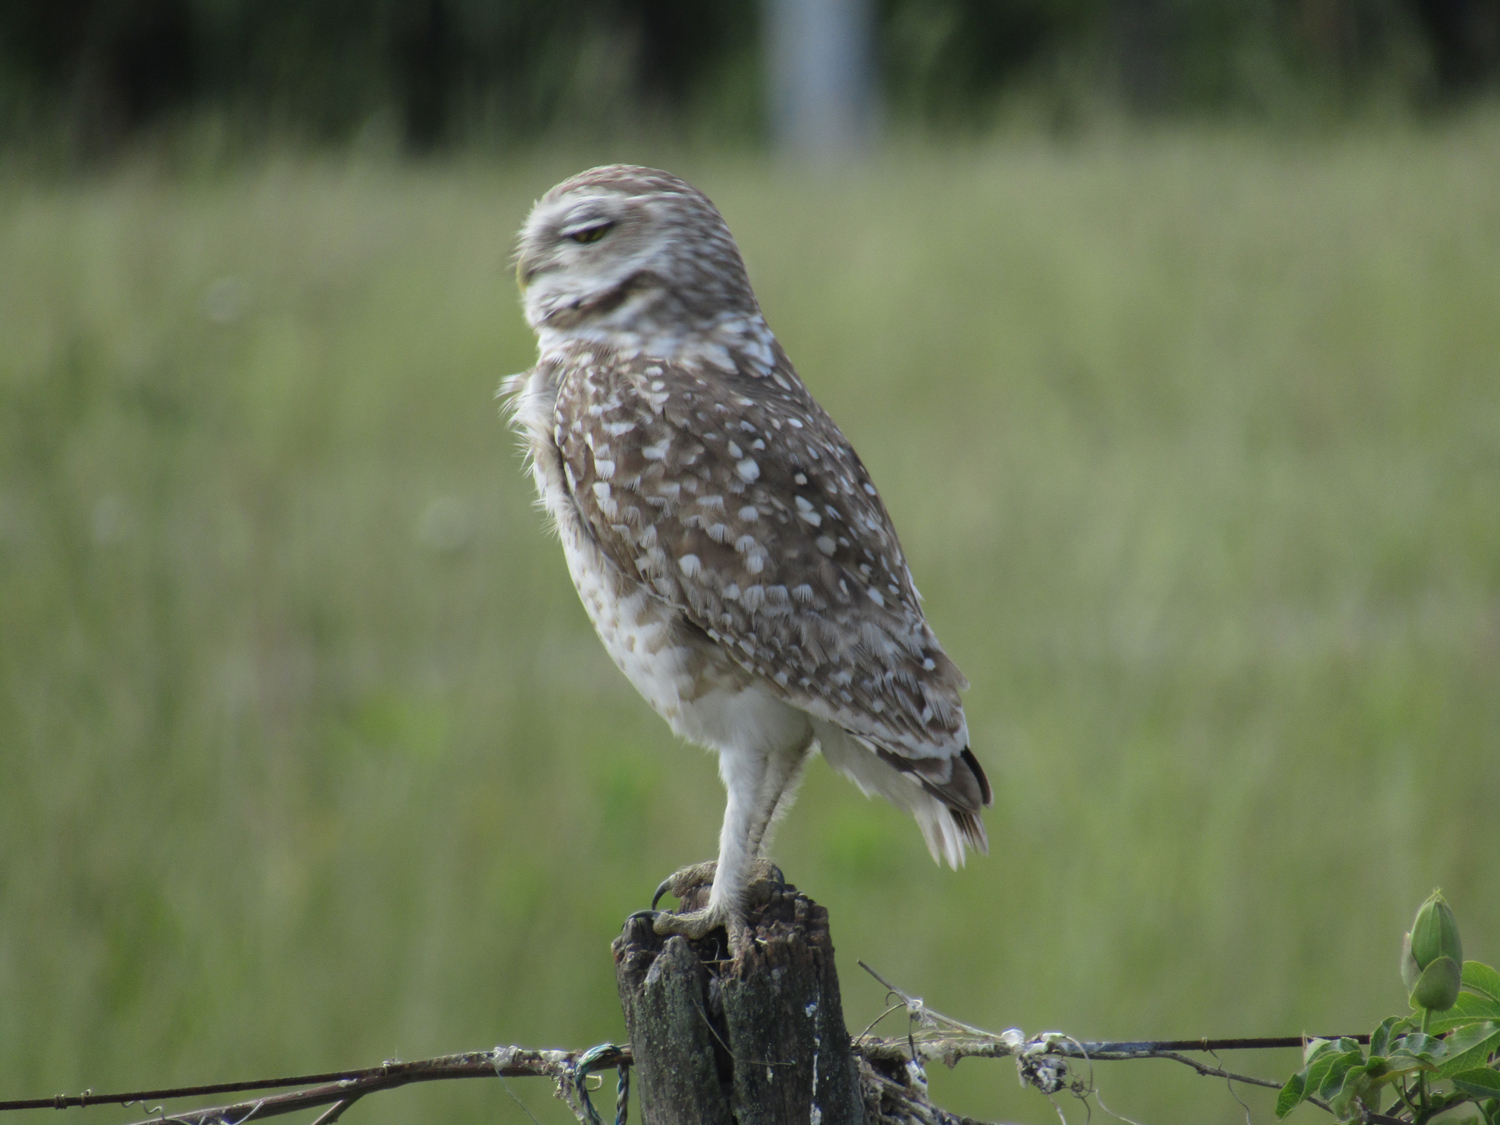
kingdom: Animalia
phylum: Chordata
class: Aves
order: Strigiformes
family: Strigidae
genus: Athene
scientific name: Athene cunicularia
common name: Burrowing owl
